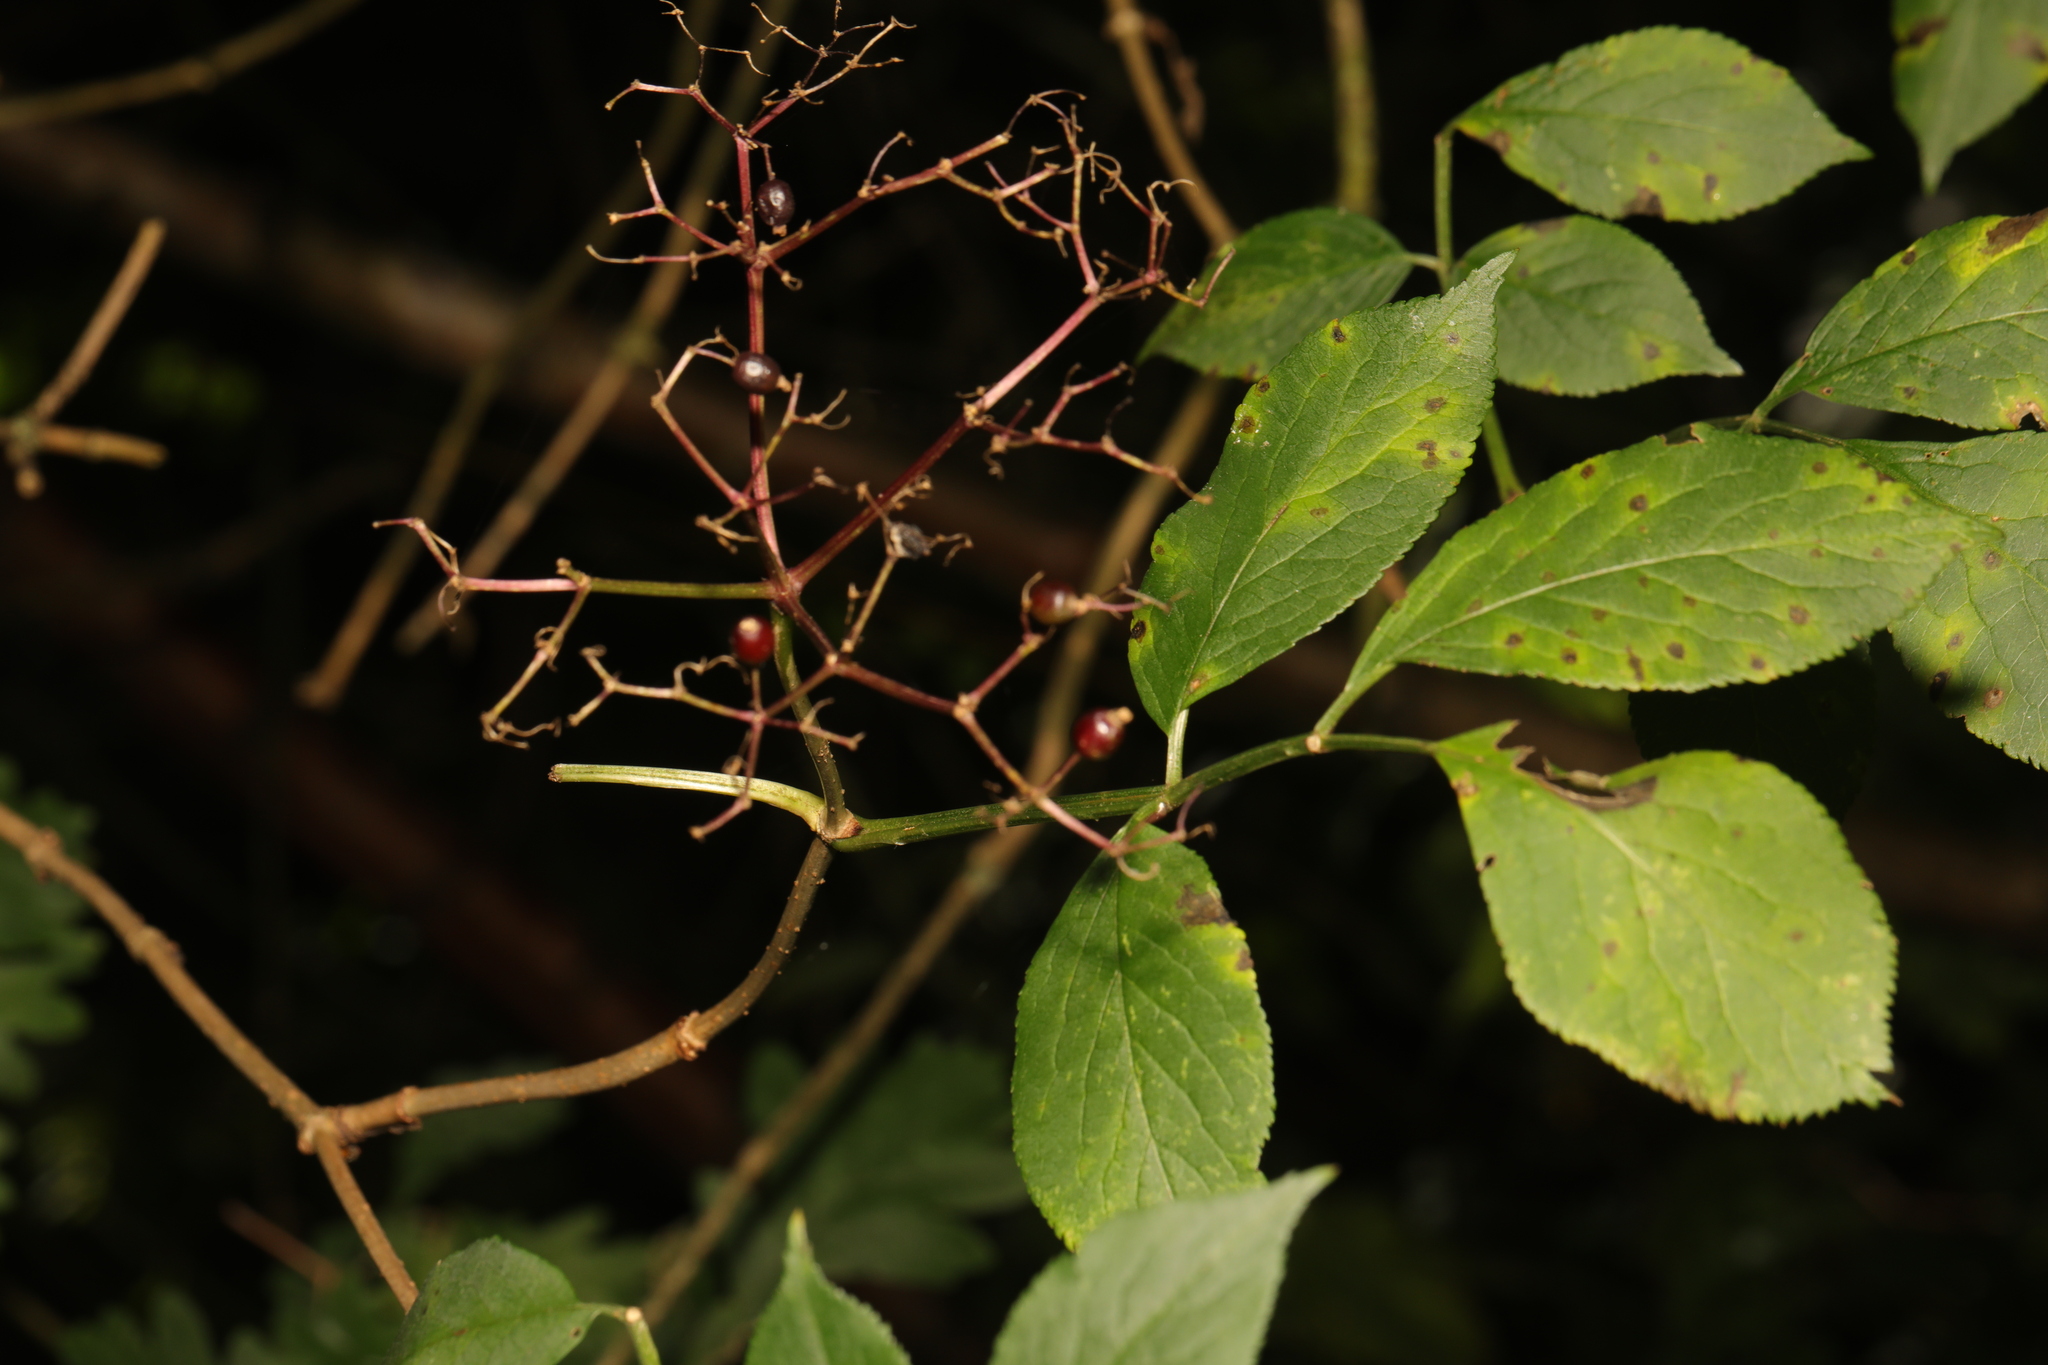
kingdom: Plantae
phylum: Tracheophyta
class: Magnoliopsida
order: Dipsacales
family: Viburnaceae
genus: Sambucus
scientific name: Sambucus nigra
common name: Elder
